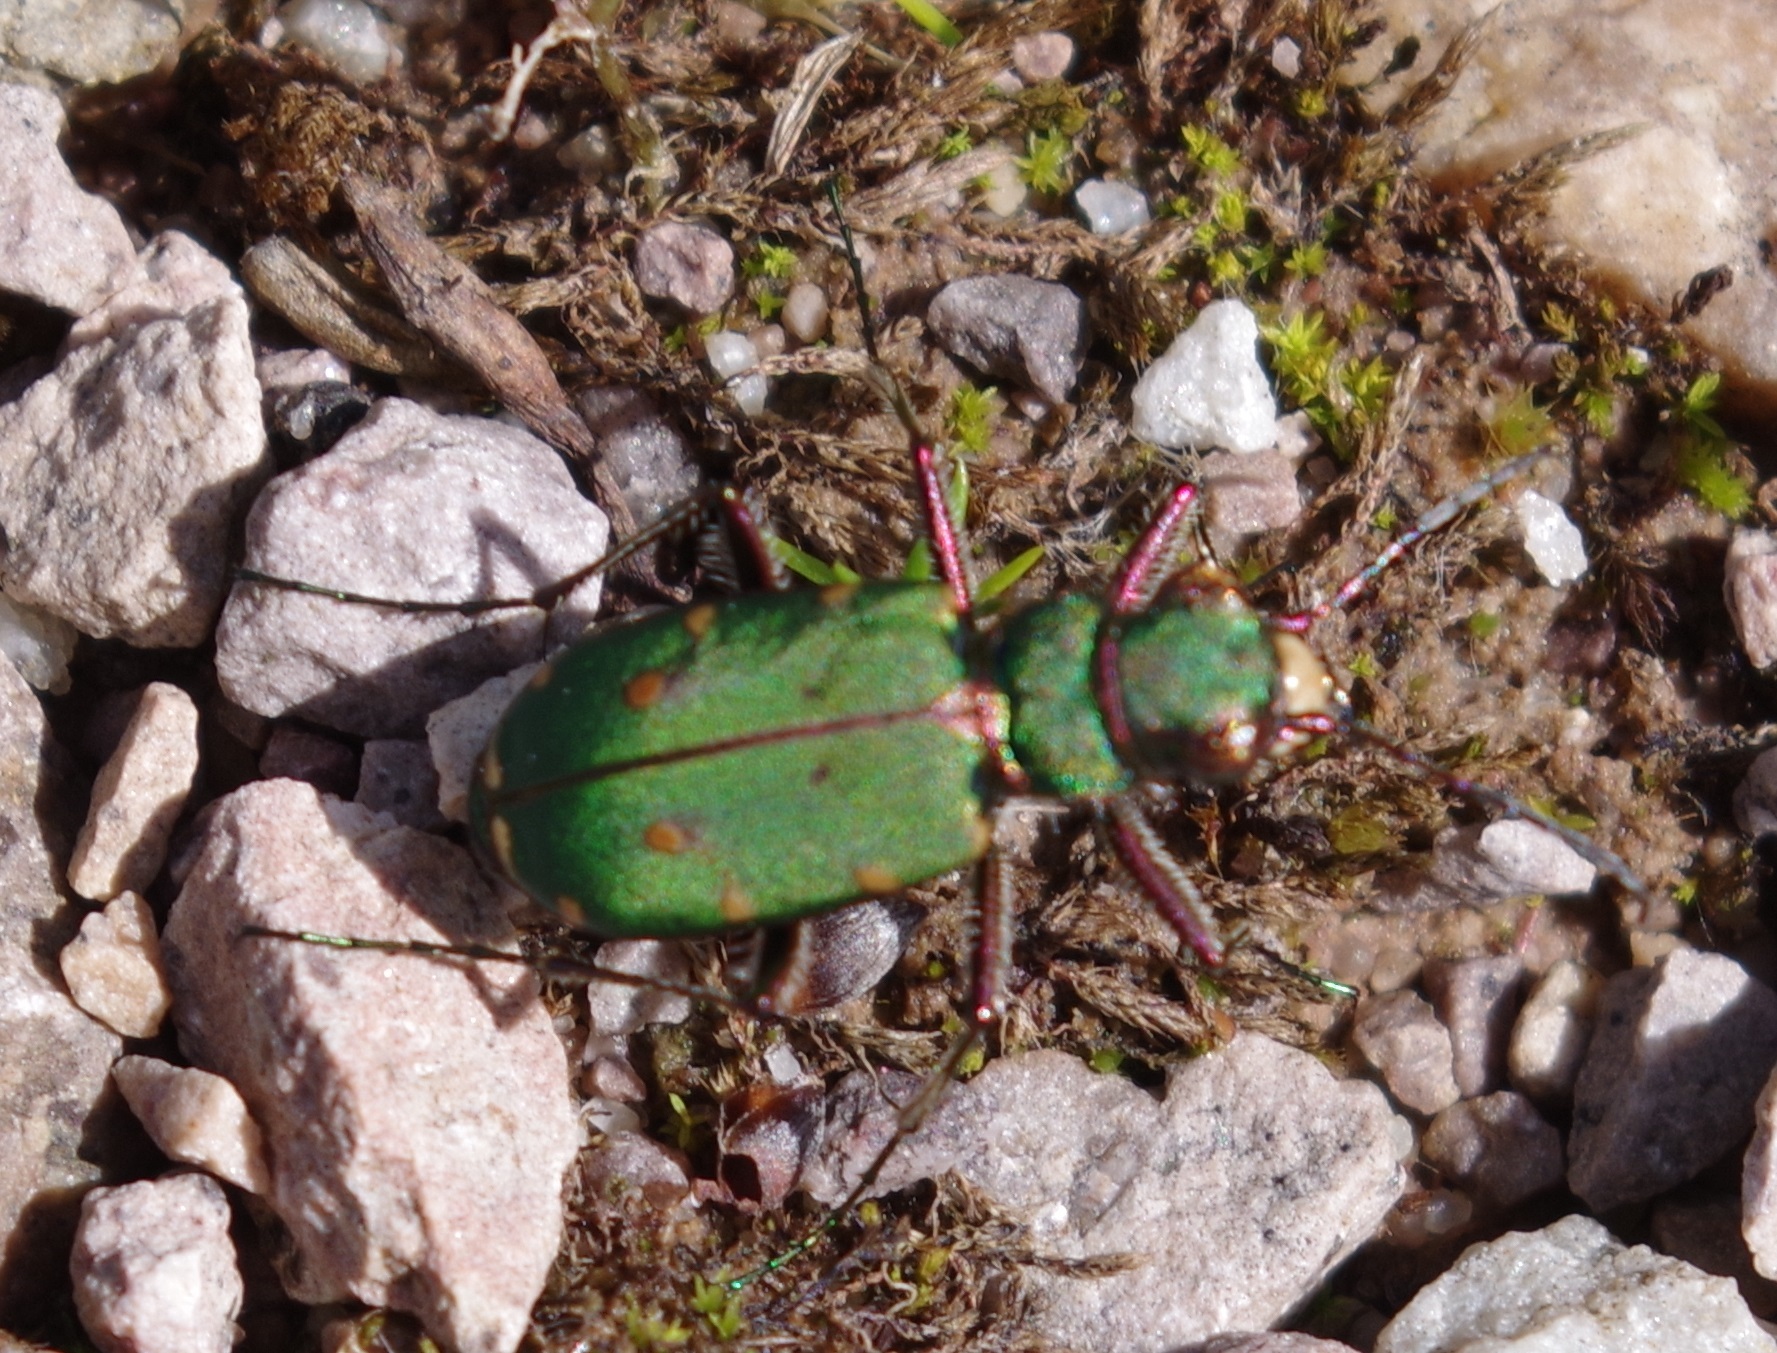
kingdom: Animalia
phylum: Arthropoda
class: Insecta
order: Coleoptera
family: Carabidae
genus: Cicindela
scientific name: Cicindela campestris
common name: Common tiger beetle
